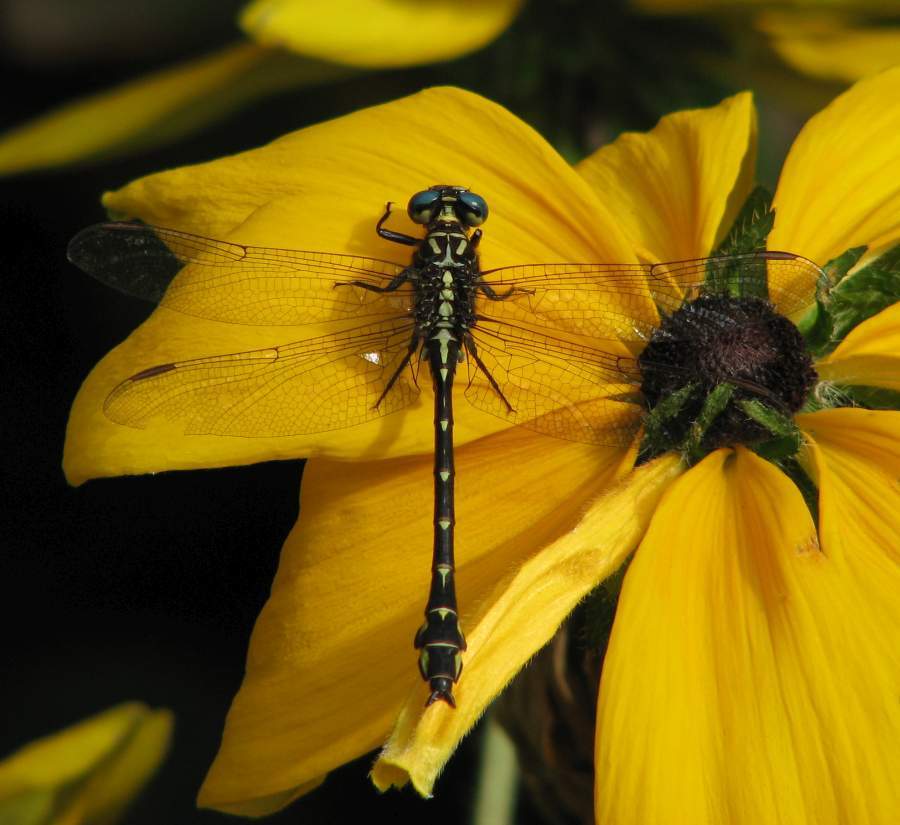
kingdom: Animalia
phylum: Arthropoda
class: Insecta
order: Odonata
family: Gomphidae
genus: Stylurus
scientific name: Stylurus notatus
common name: Elusive clubtail
